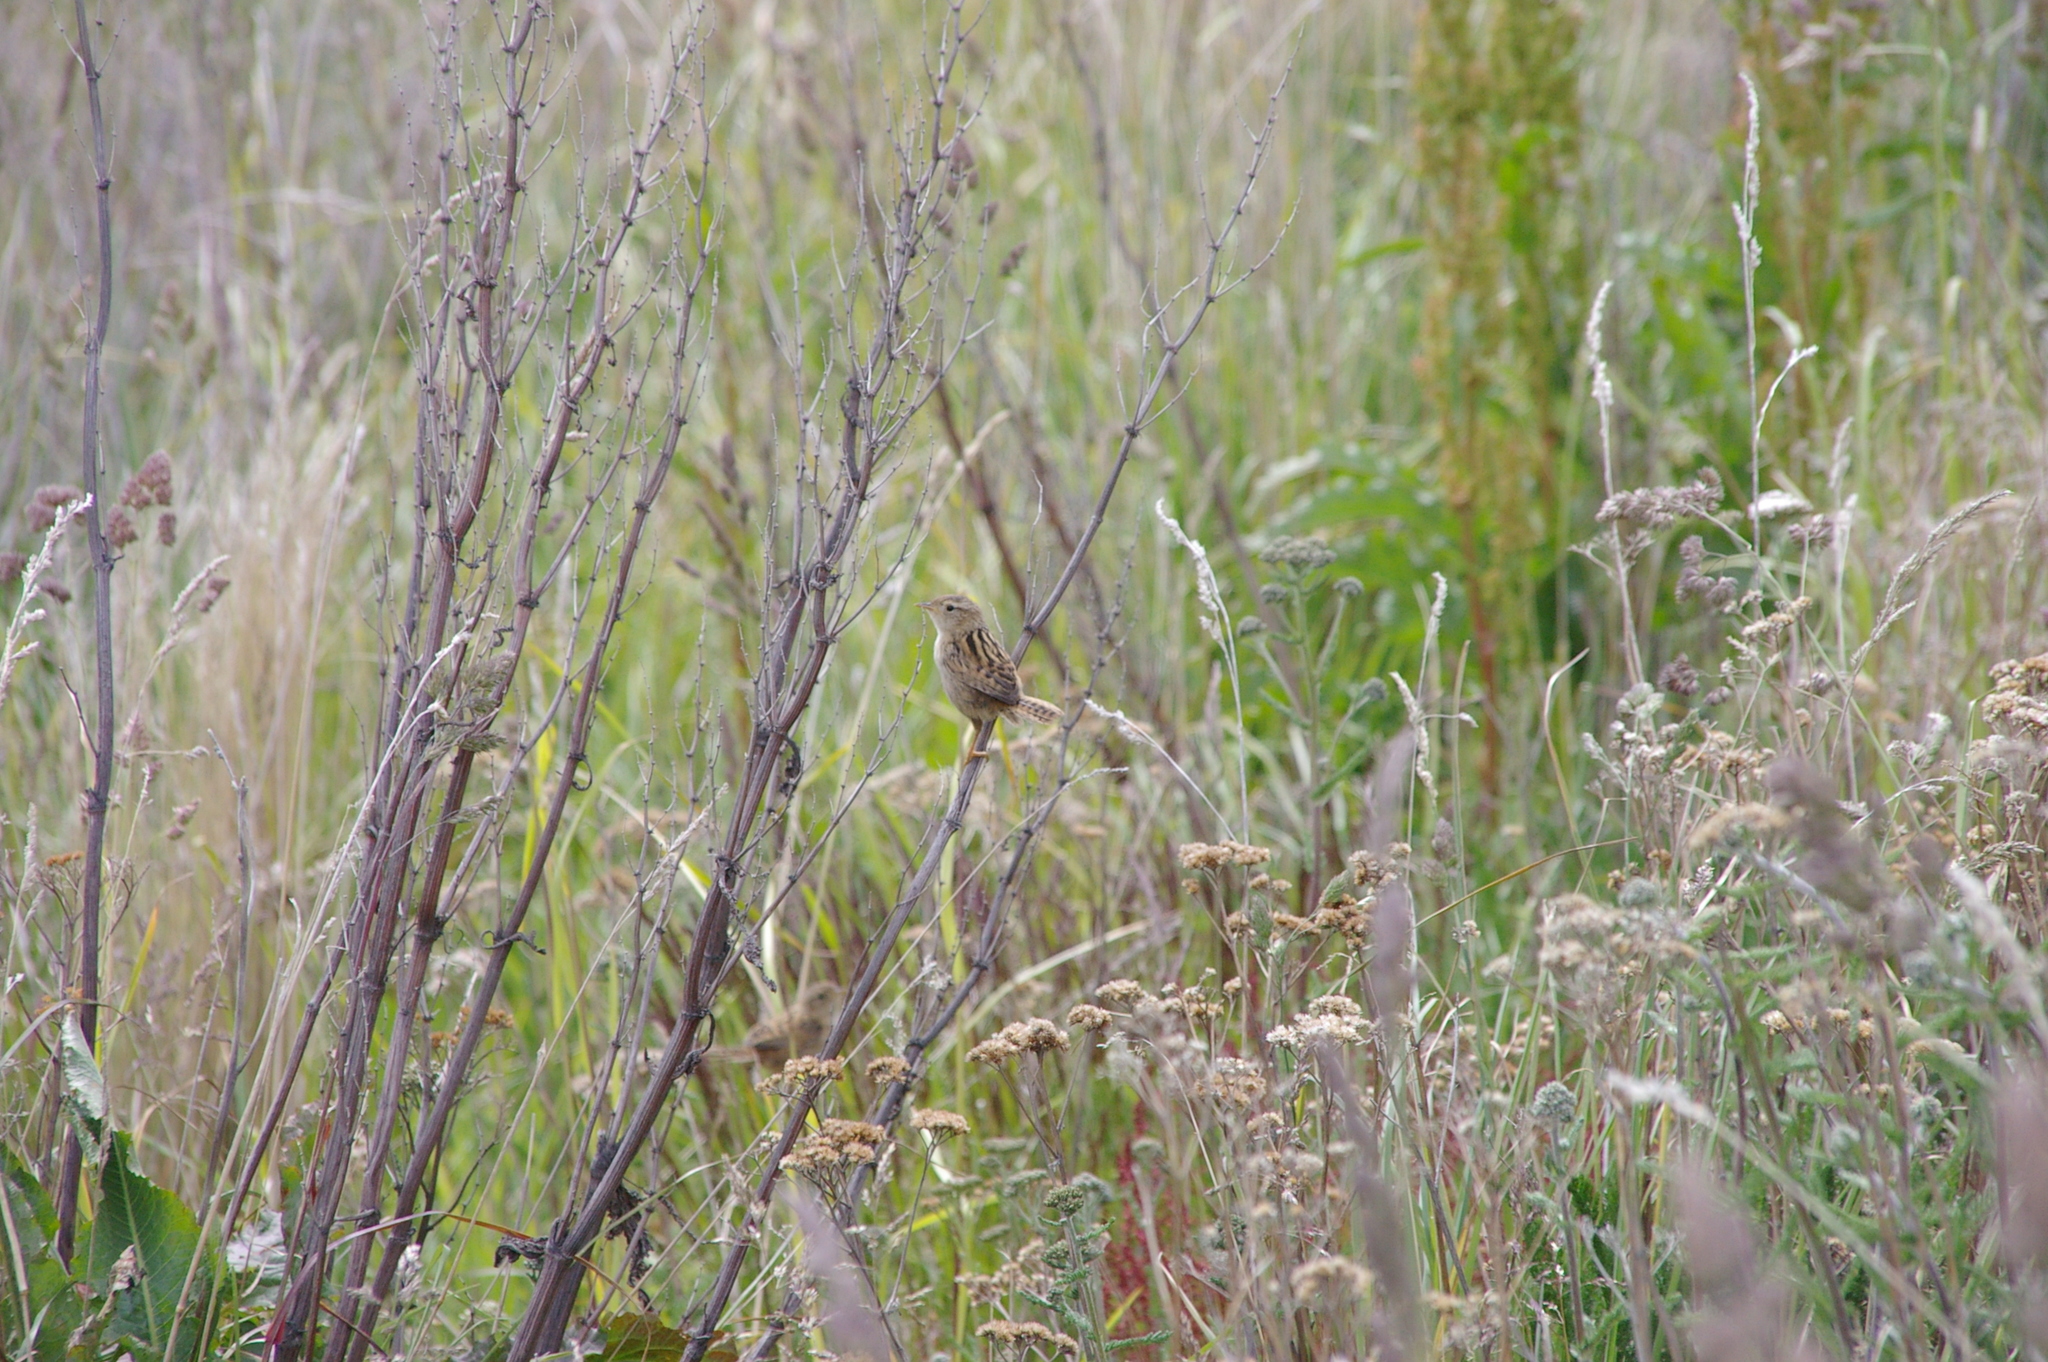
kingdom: Animalia
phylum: Chordata
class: Aves
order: Passeriformes
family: Troglodytidae
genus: Cistothorus
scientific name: Cistothorus platensis
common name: Sedge wren
